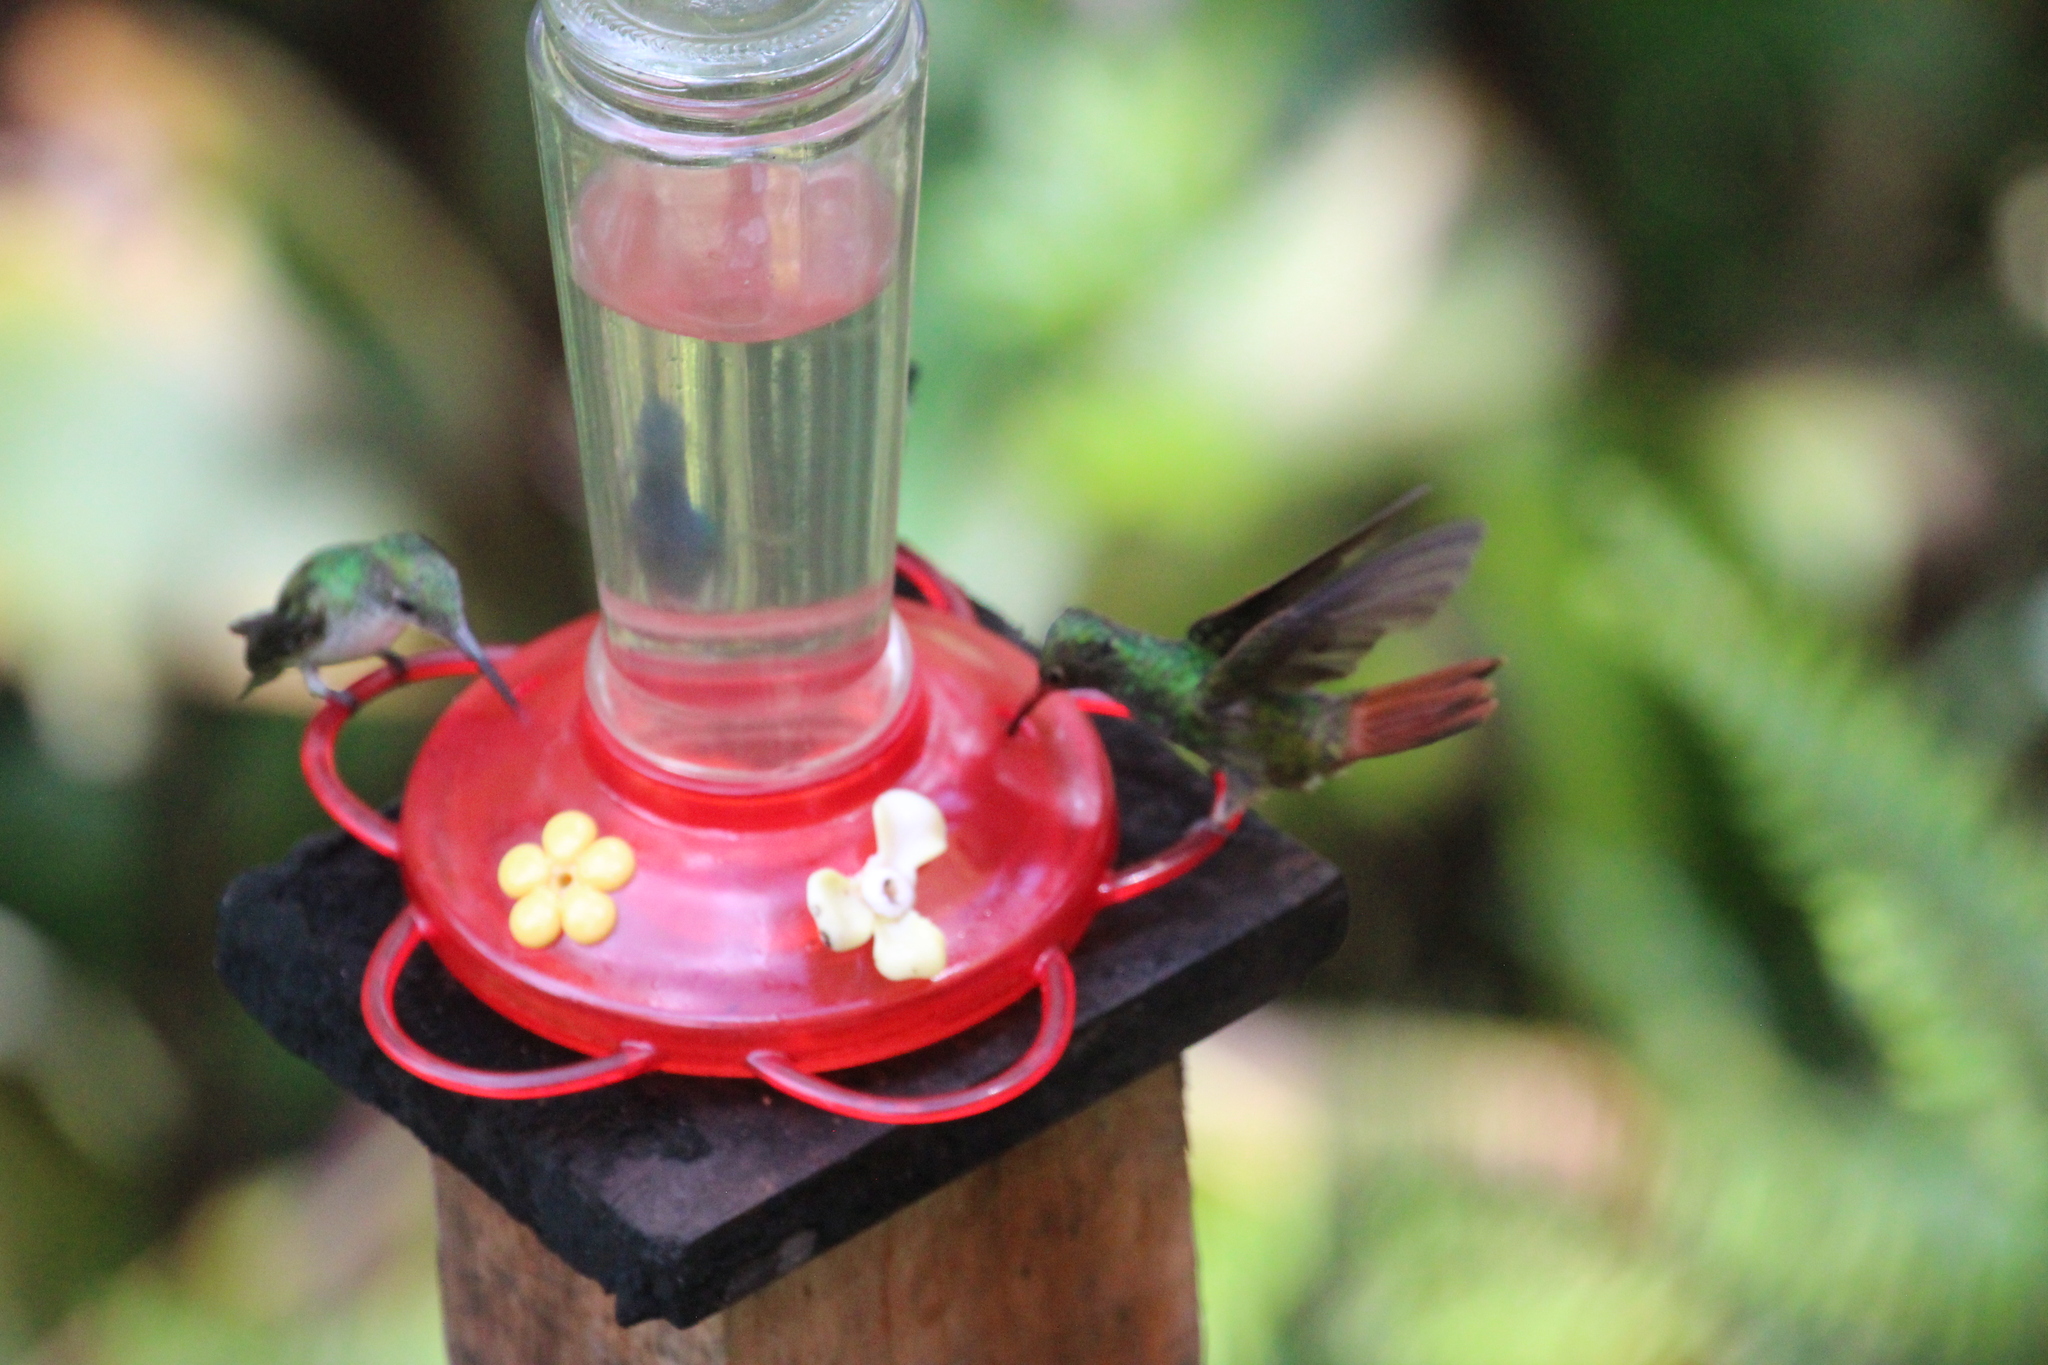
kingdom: Animalia
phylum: Chordata
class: Aves
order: Apodiformes
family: Trochilidae
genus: Amazilia
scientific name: Amazilia tzacatl
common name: Rufous-tailed hummingbird
